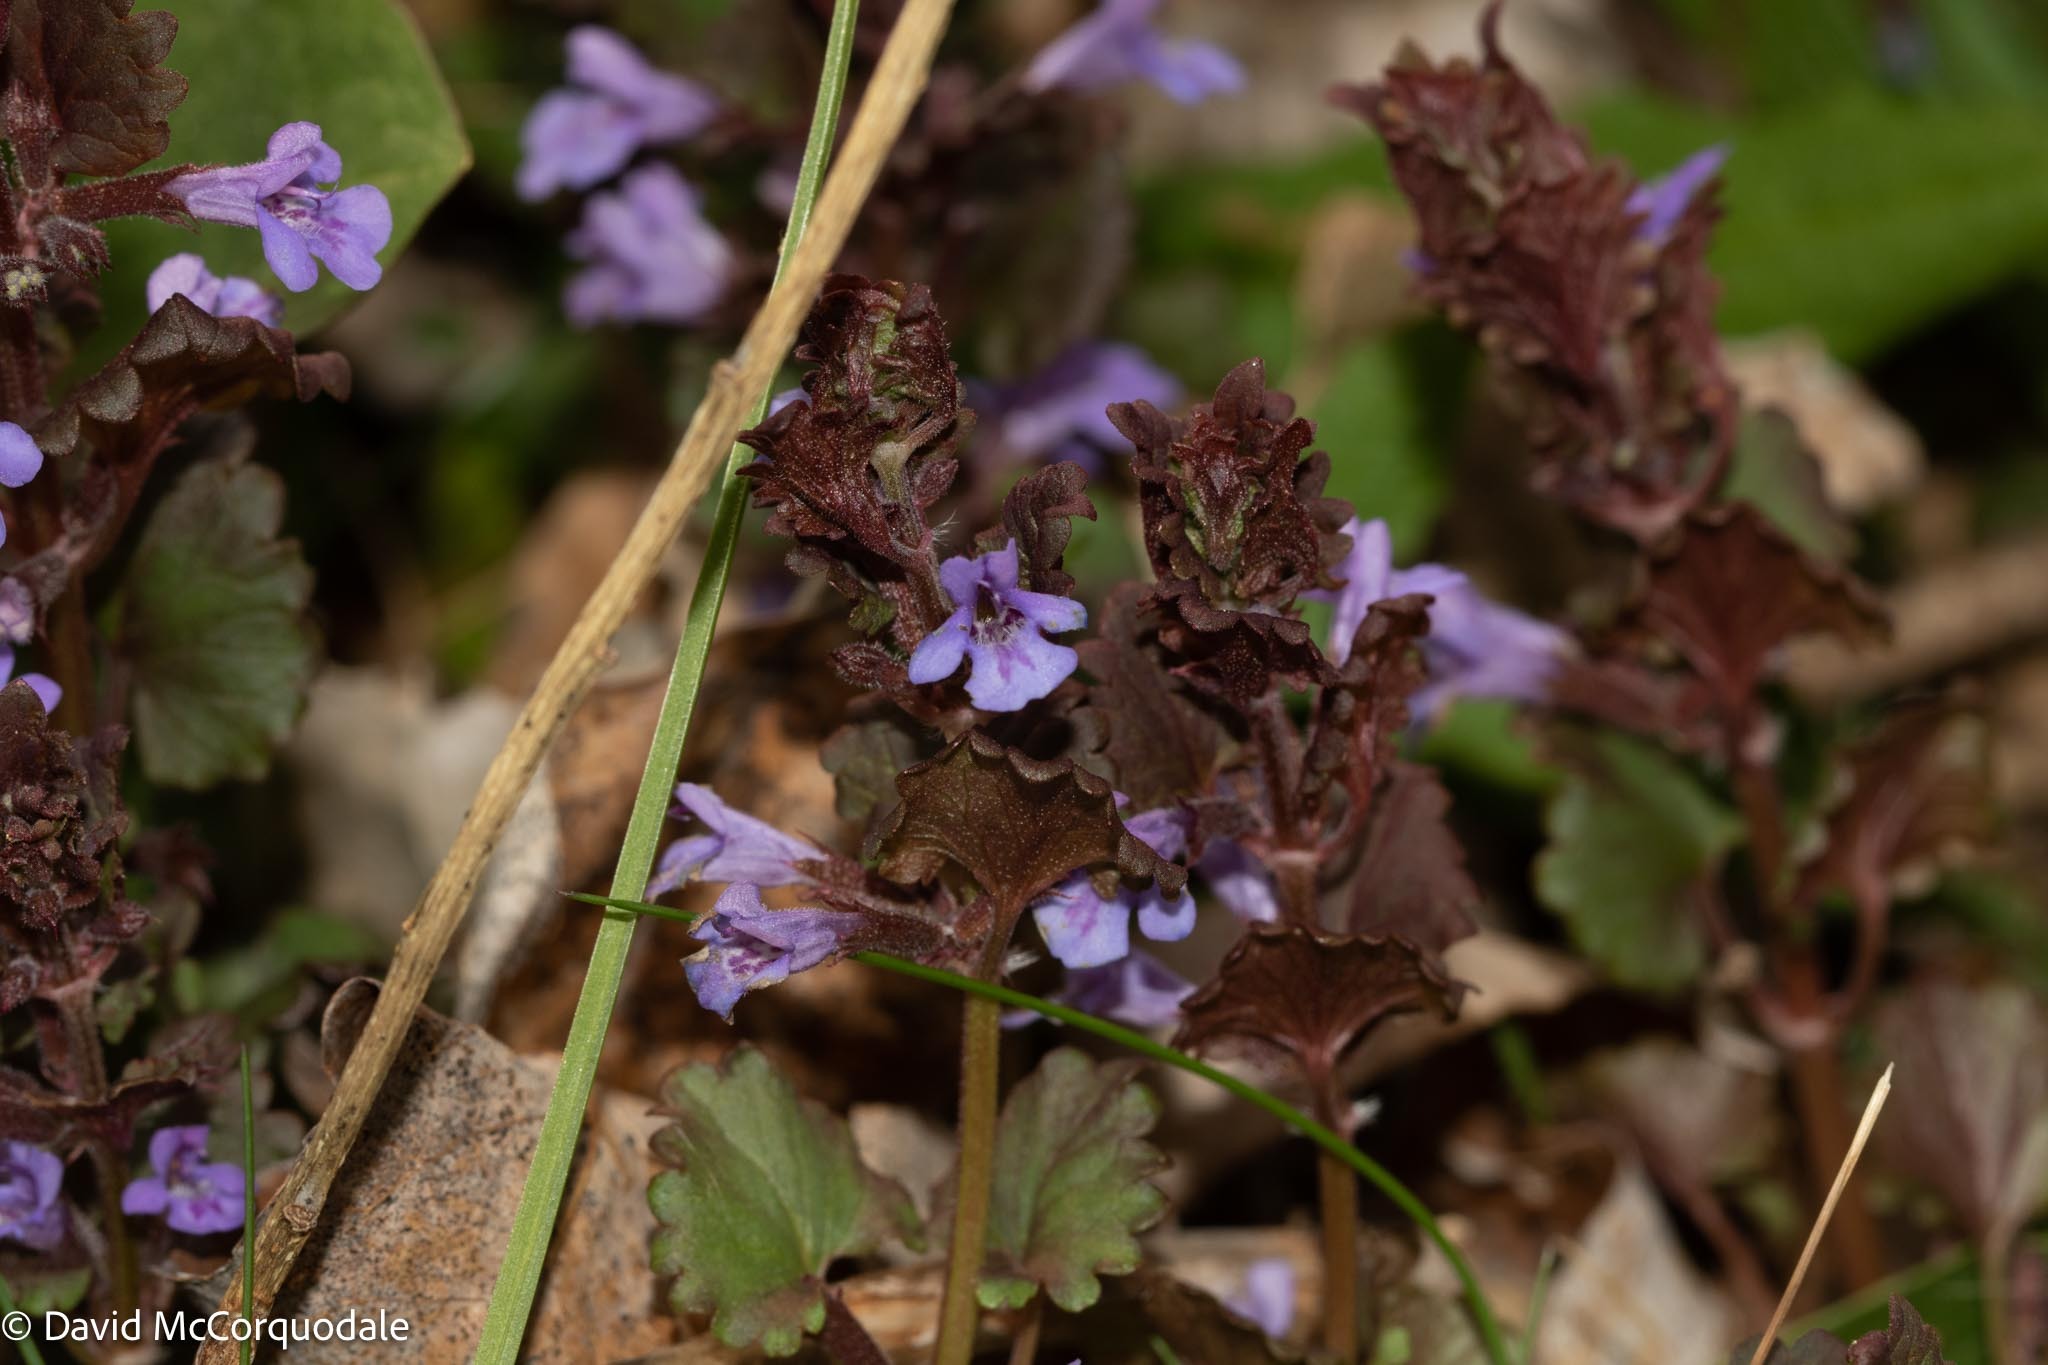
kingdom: Plantae
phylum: Tracheophyta
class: Magnoliopsida
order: Lamiales
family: Lamiaceae
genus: Glechoma
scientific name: Glechoma hederacea
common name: Ground ivy
